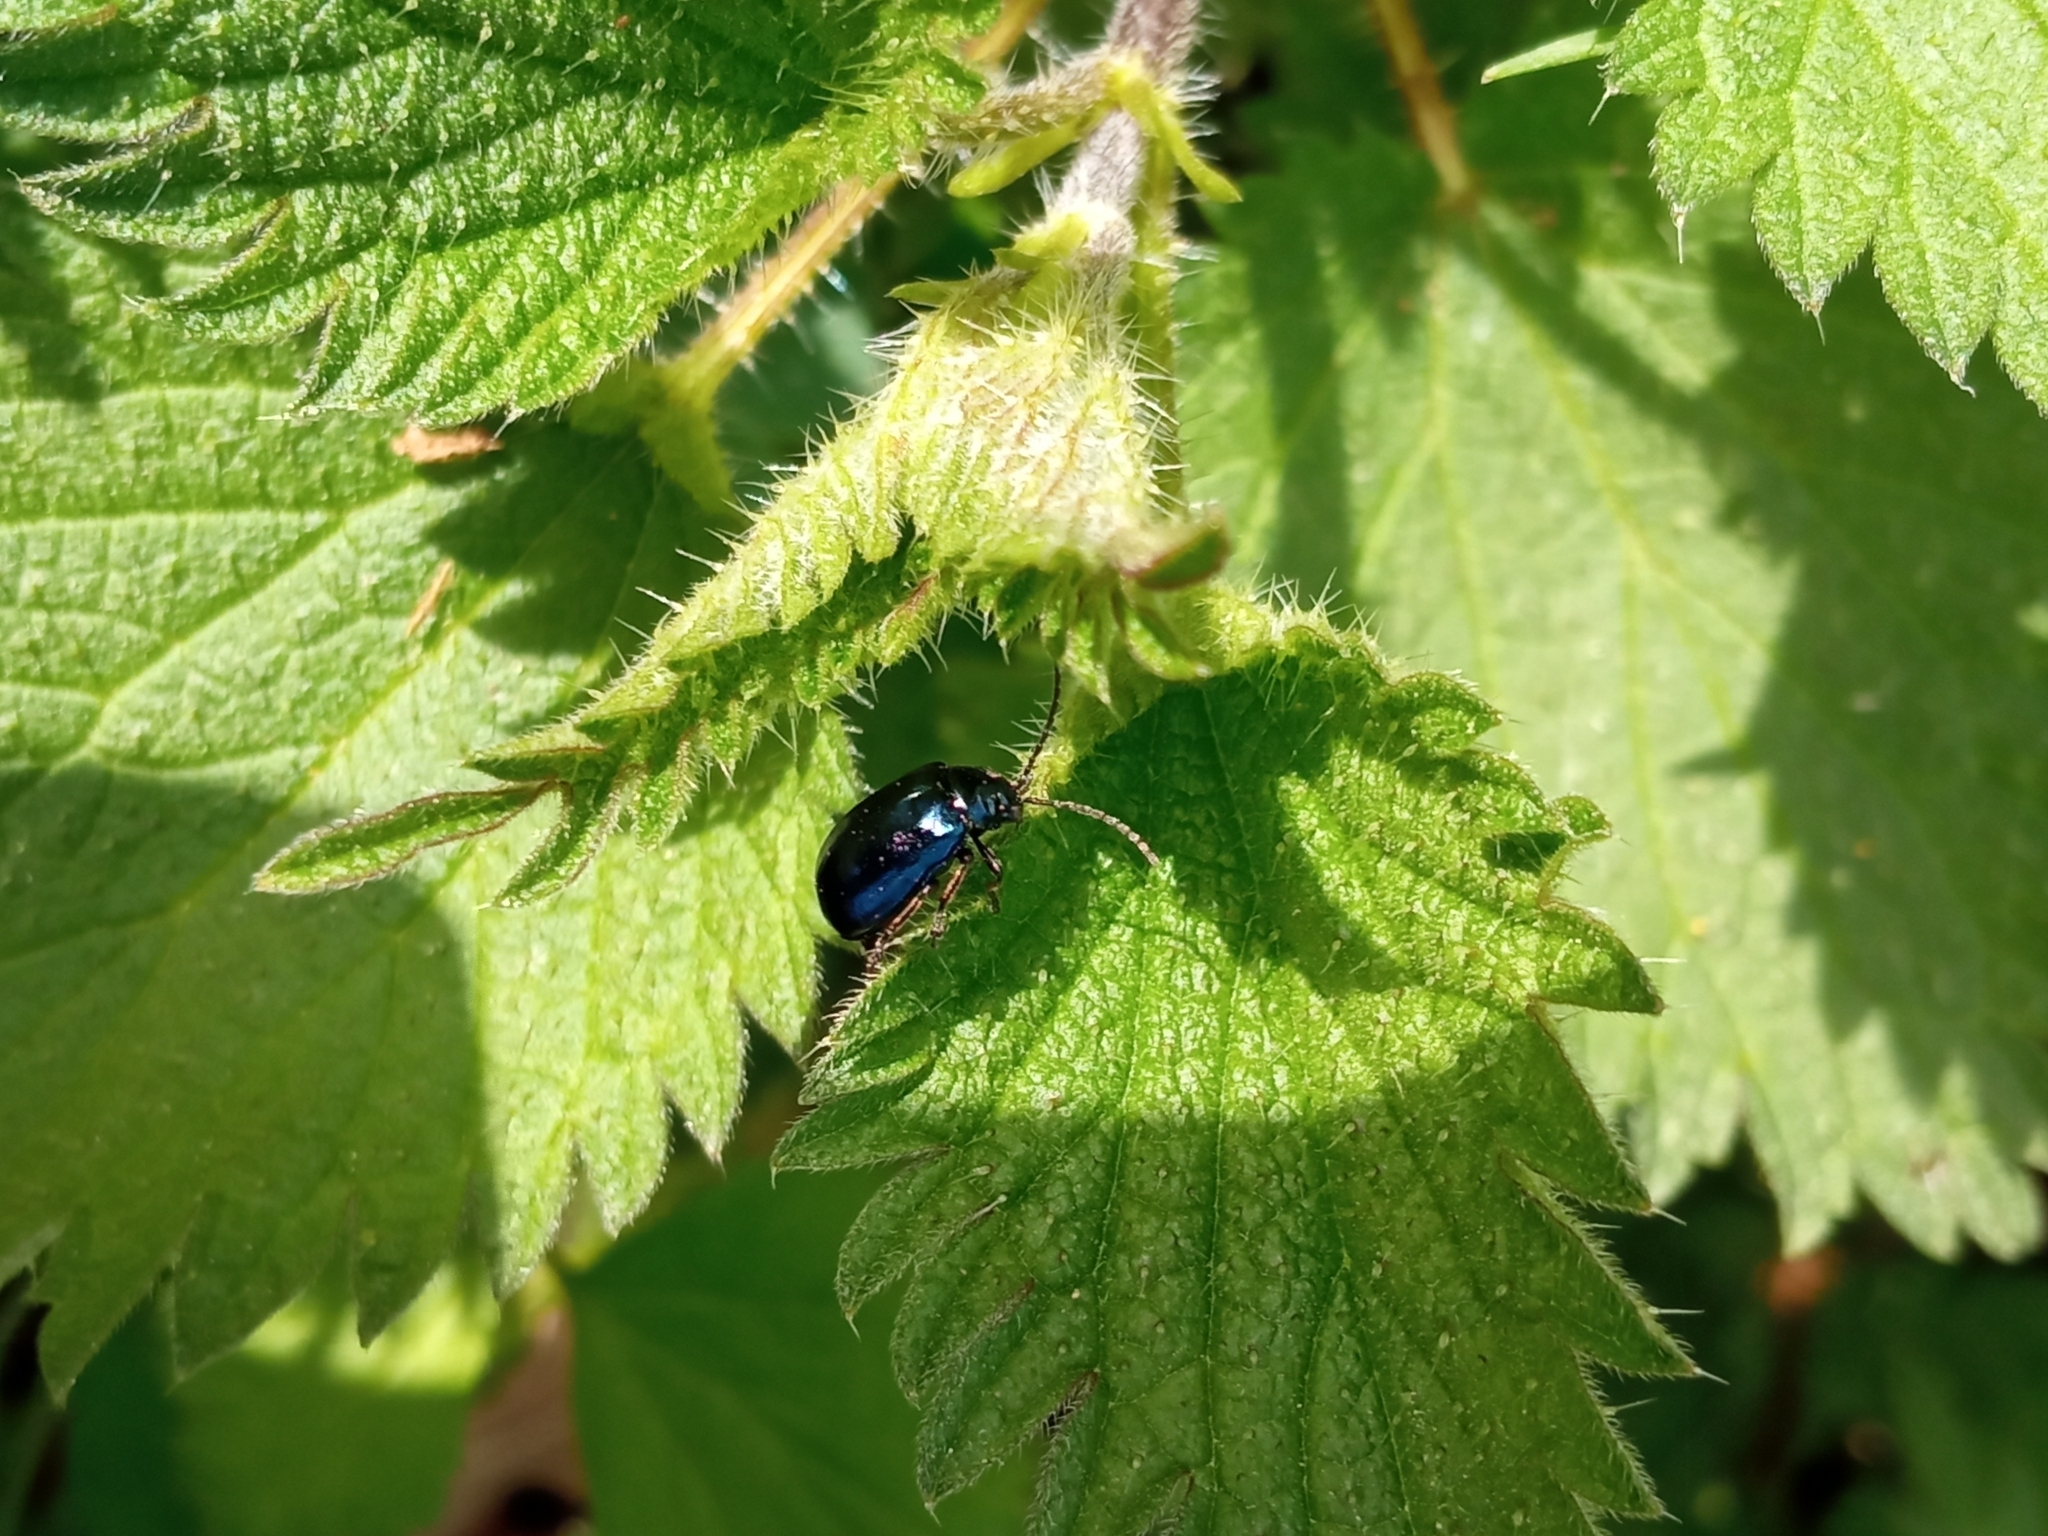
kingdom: Animalia
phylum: Arthropoda
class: Insecta
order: Coleoptera
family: Chrysomelidae
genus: Agelastica
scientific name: Agelastica alni
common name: Alder leaf beetle
